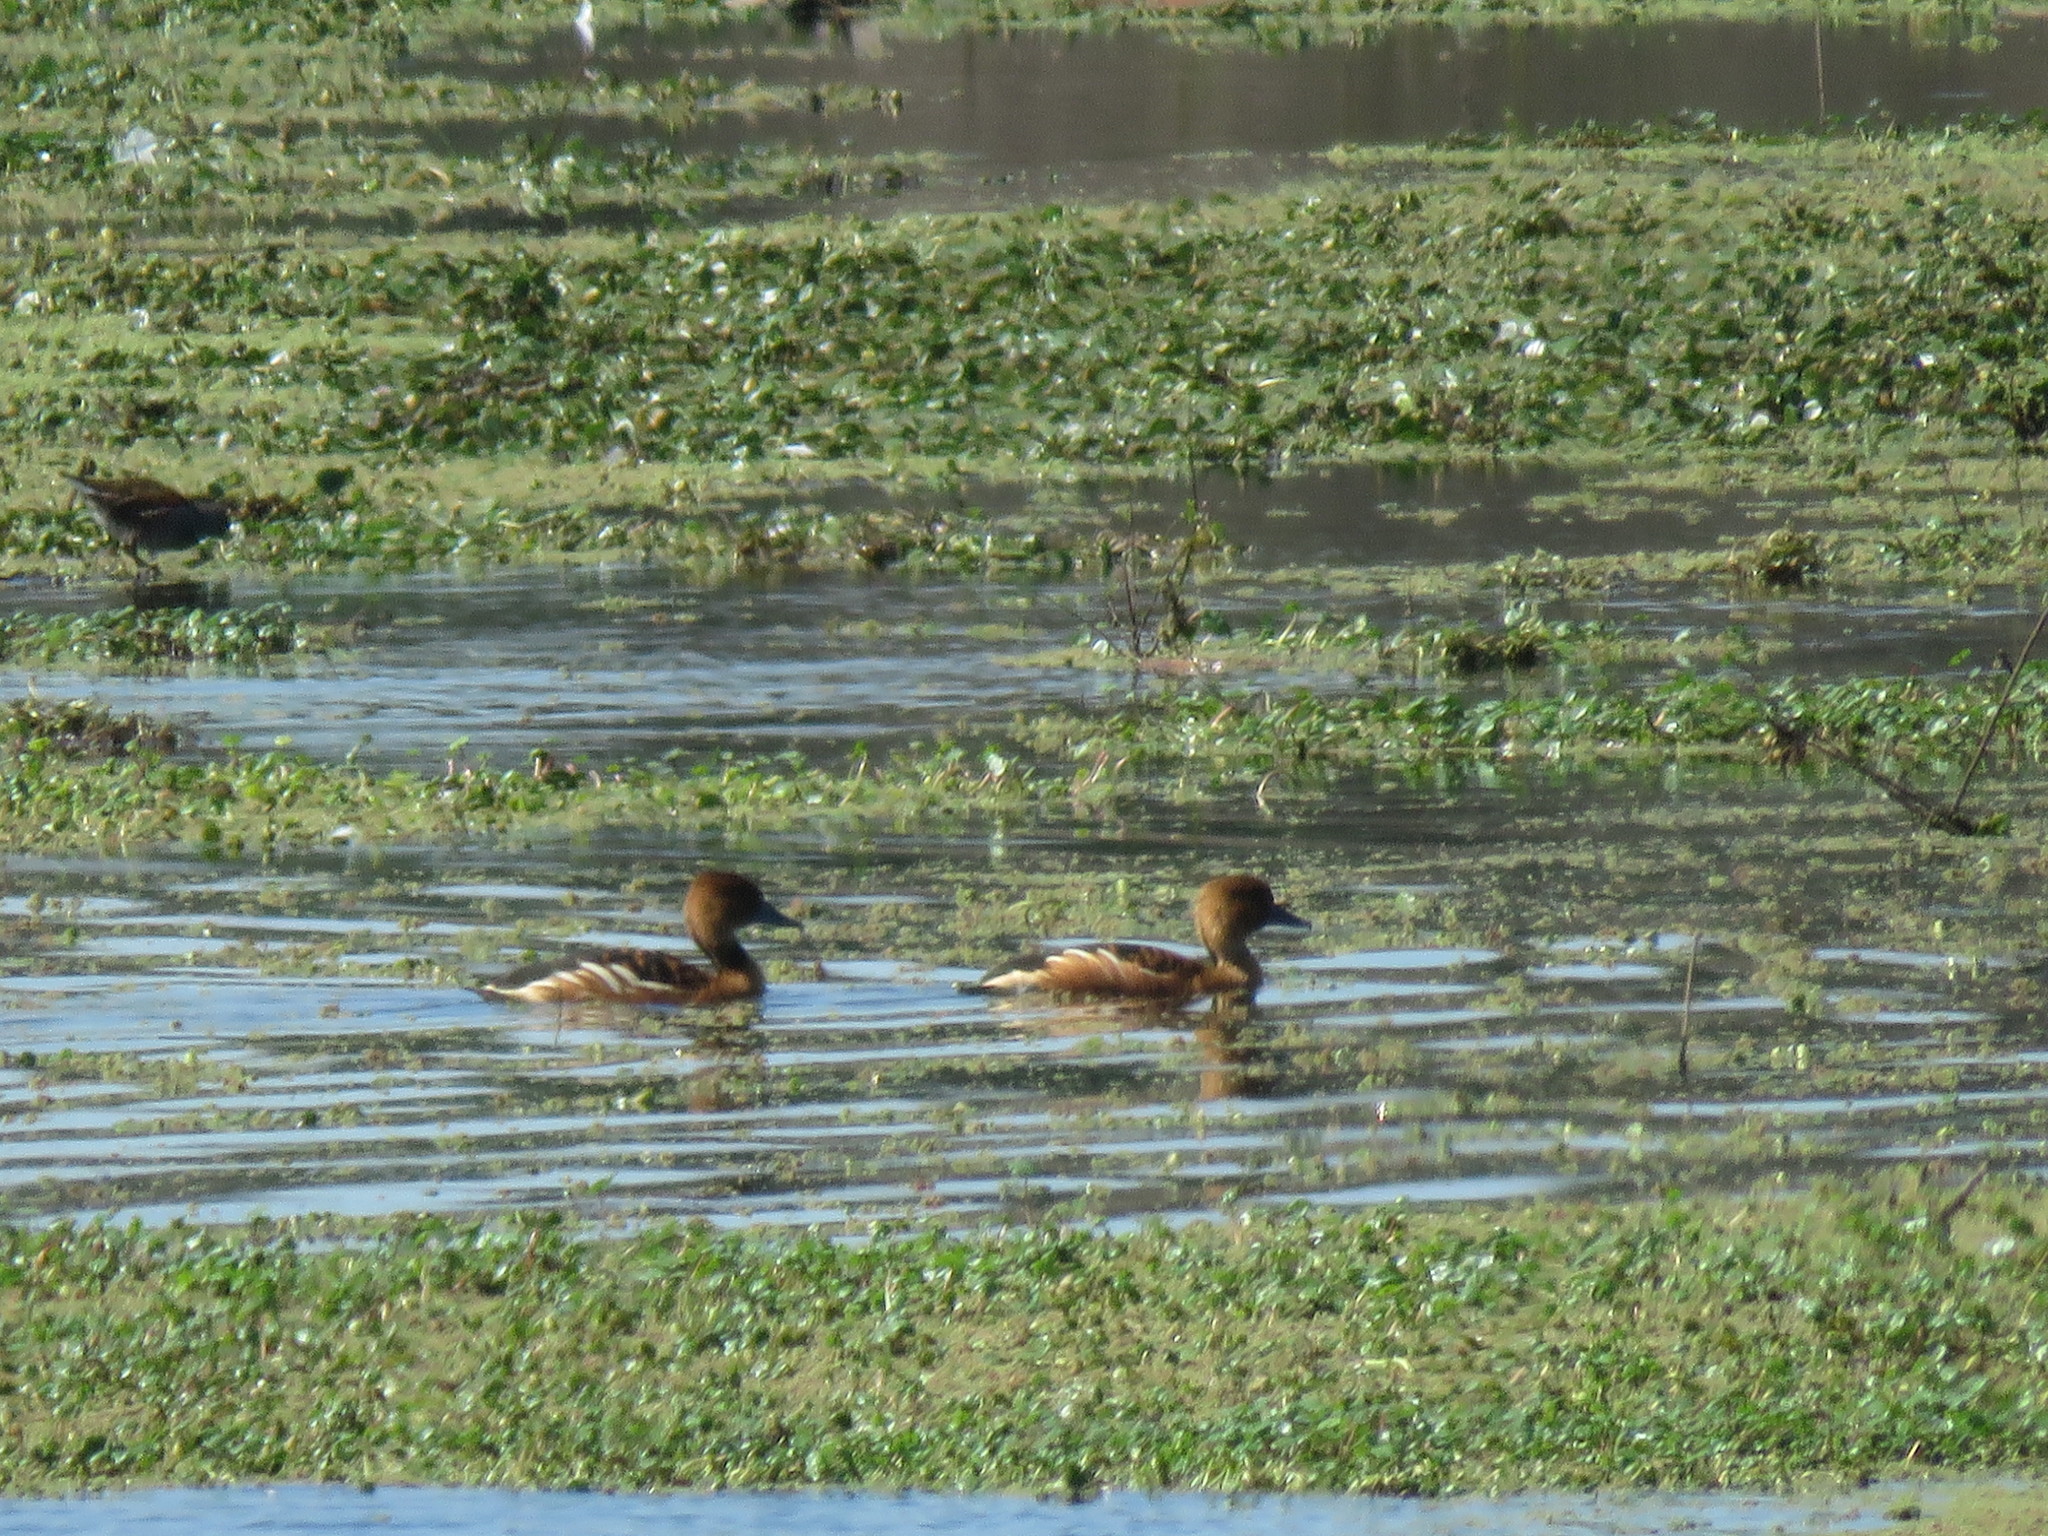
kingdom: Animalia
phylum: Chordata
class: Aves
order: Anseriformes
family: Anatidae
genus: Dendrocygna
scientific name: Dendrocygna bicolor
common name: Fulvous whistling duck
